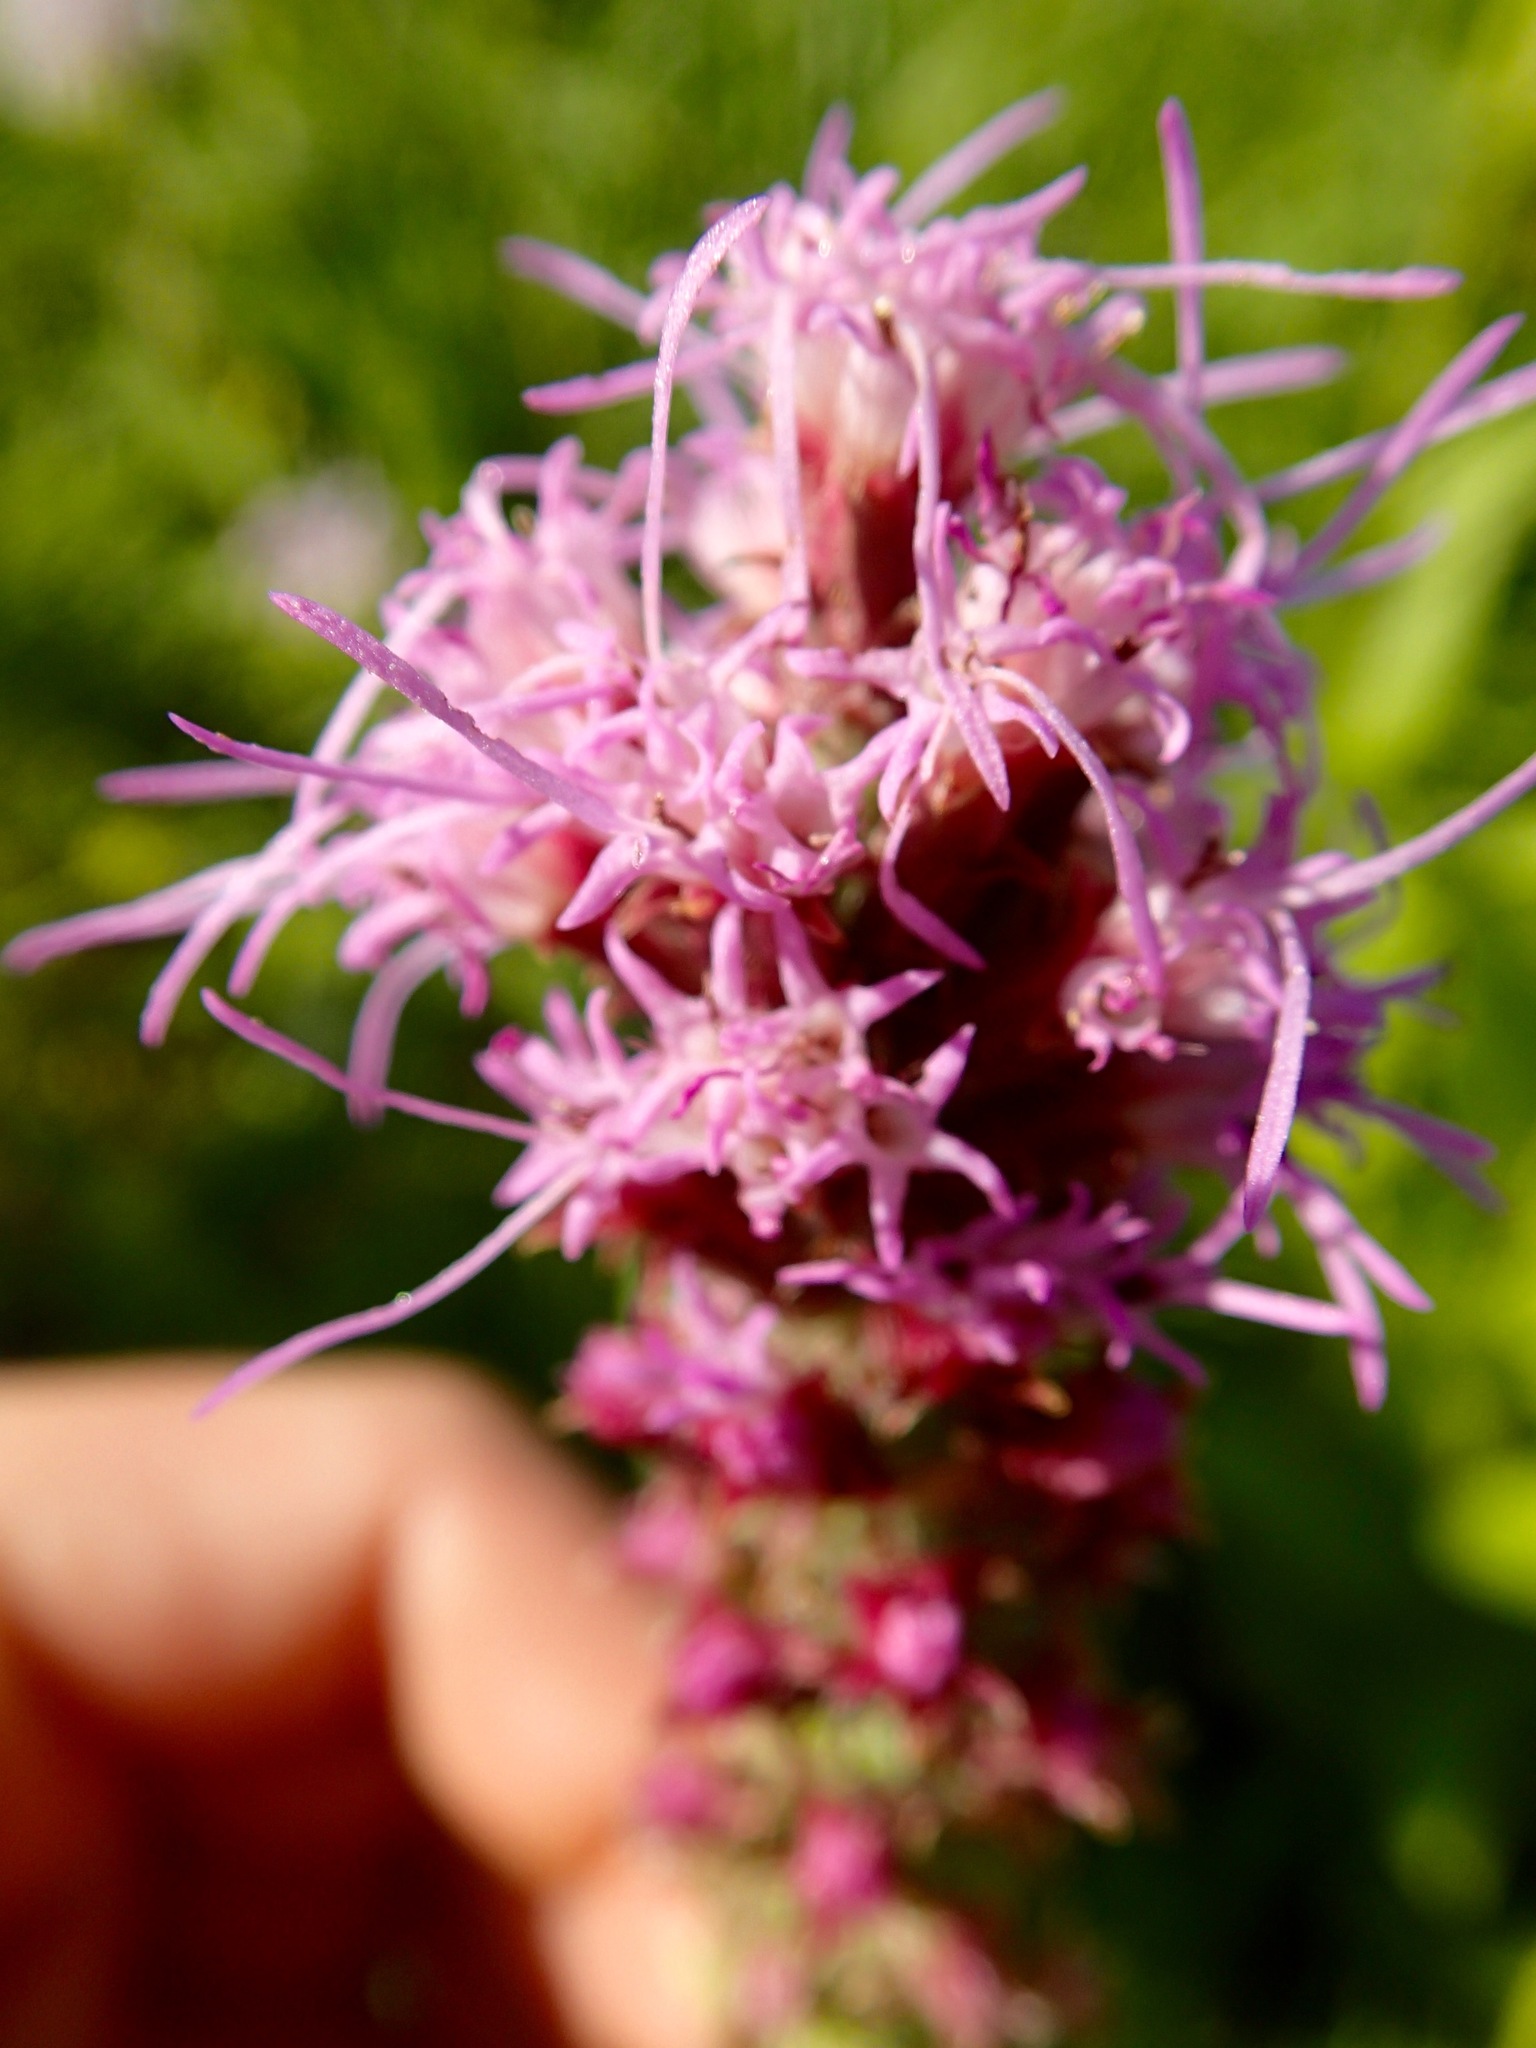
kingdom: Plantae
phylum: Tracheophyta
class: Magnoliopsida
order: Asterales
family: Asteraceae
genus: Liatris
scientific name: Liatris pycnostachya
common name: Cattail gayfeather
